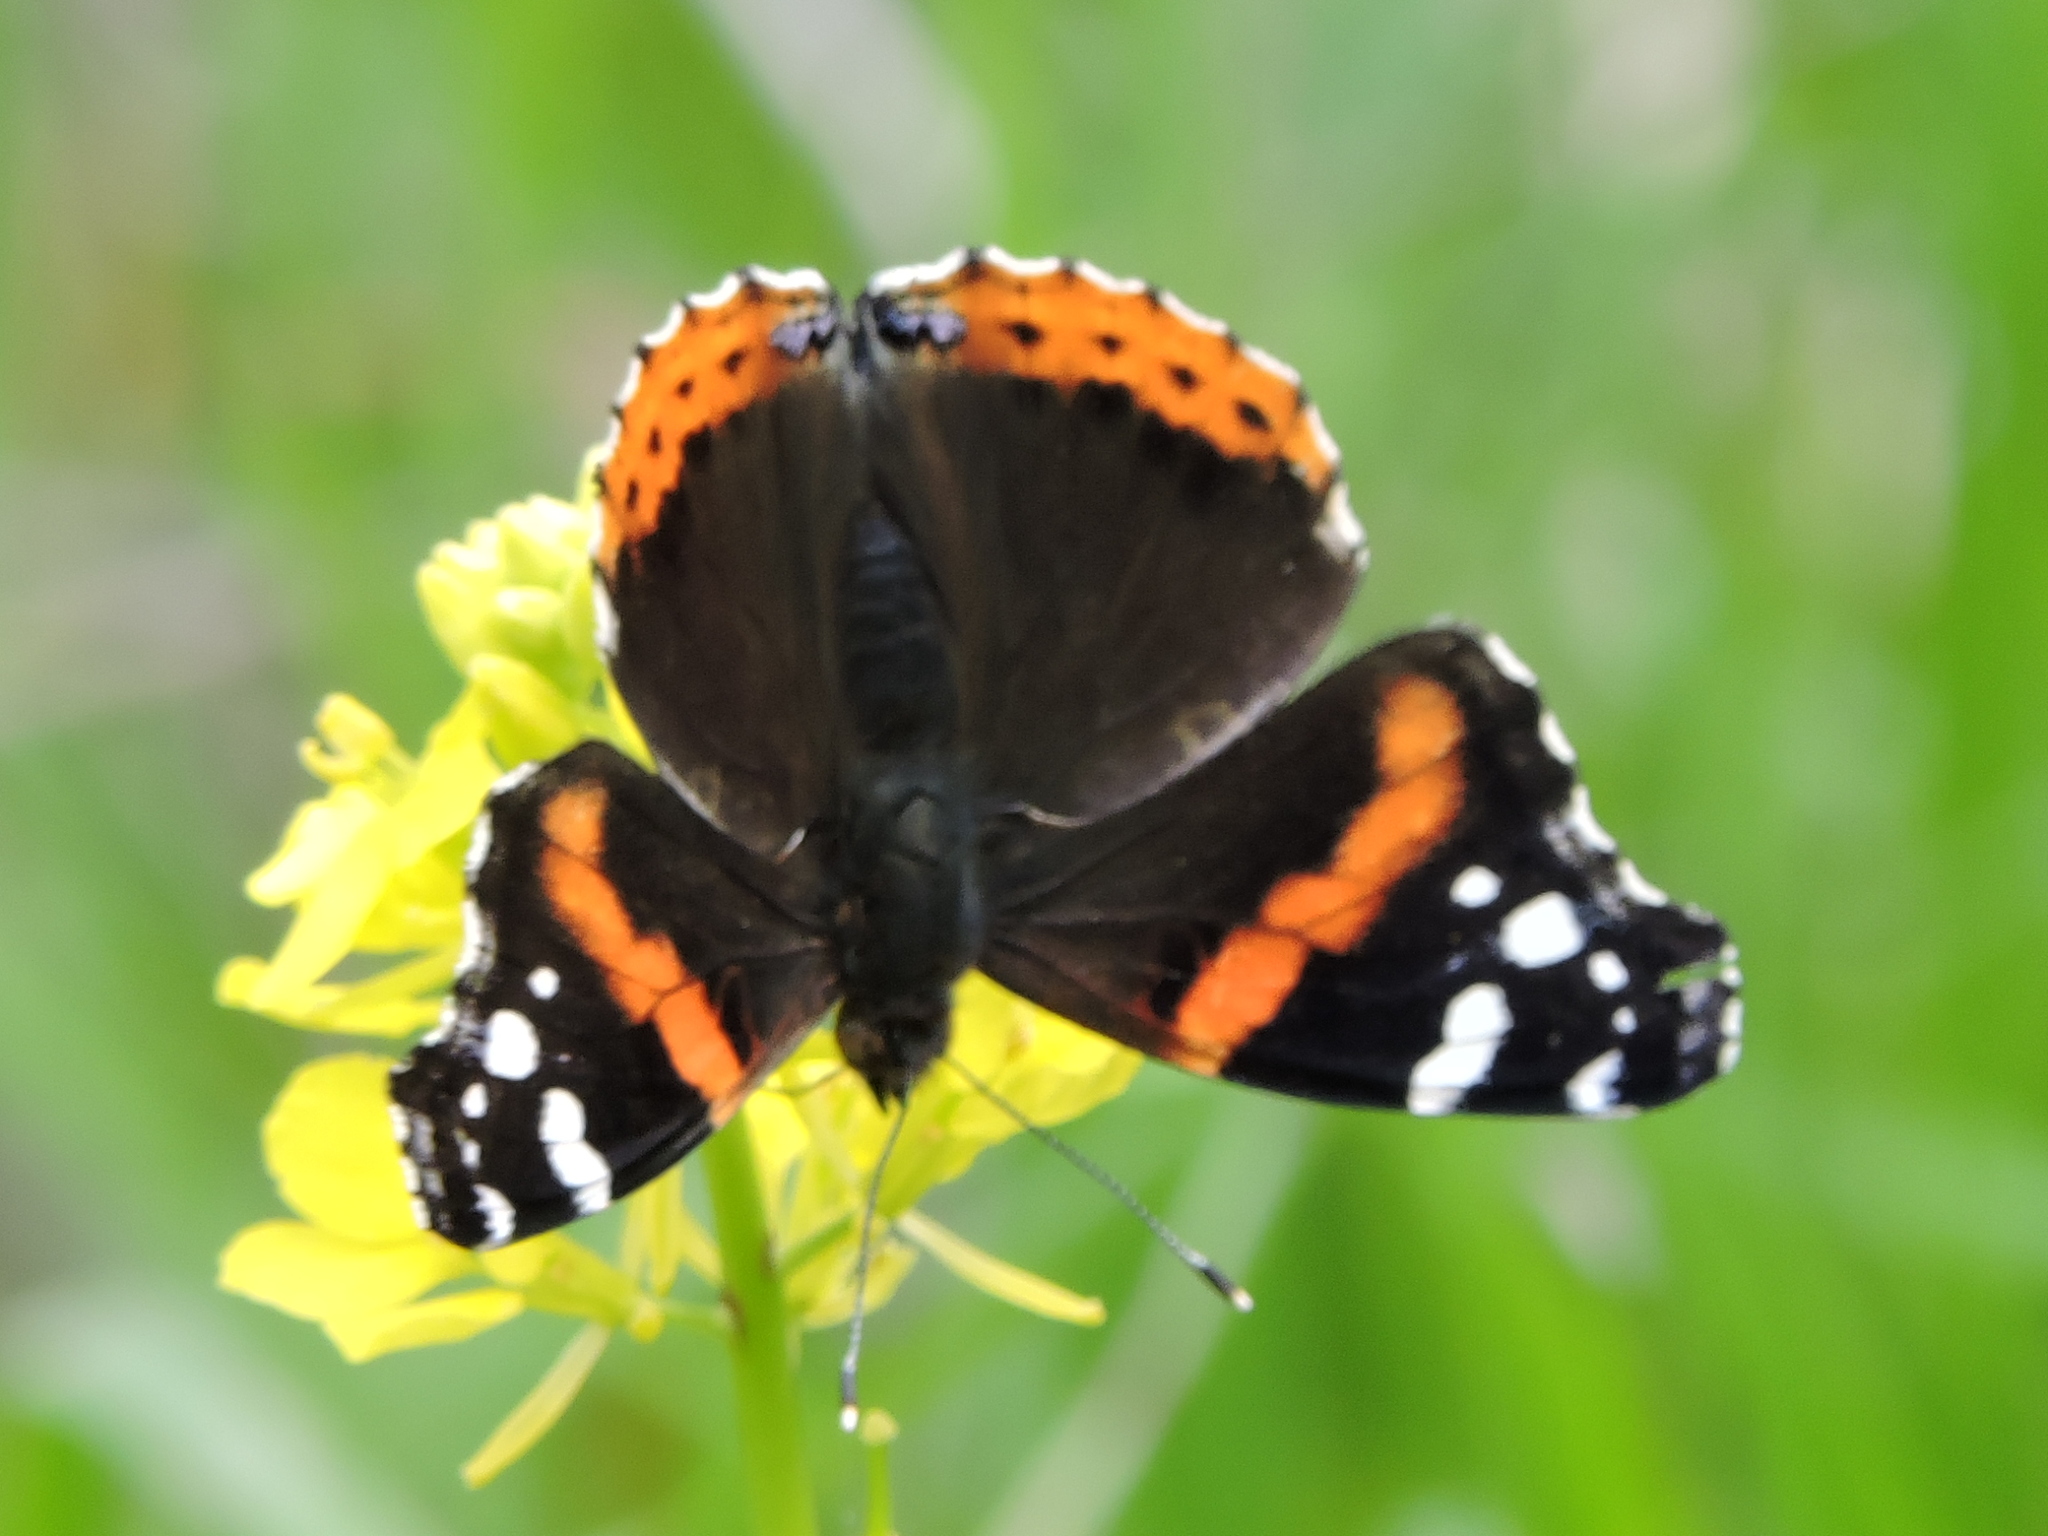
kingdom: Animalia
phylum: Arthropoda
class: Insecta
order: Lepidoptera
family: Nymphalidae
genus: Vanessa
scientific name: Vanessa atalanta
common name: Red admiral
